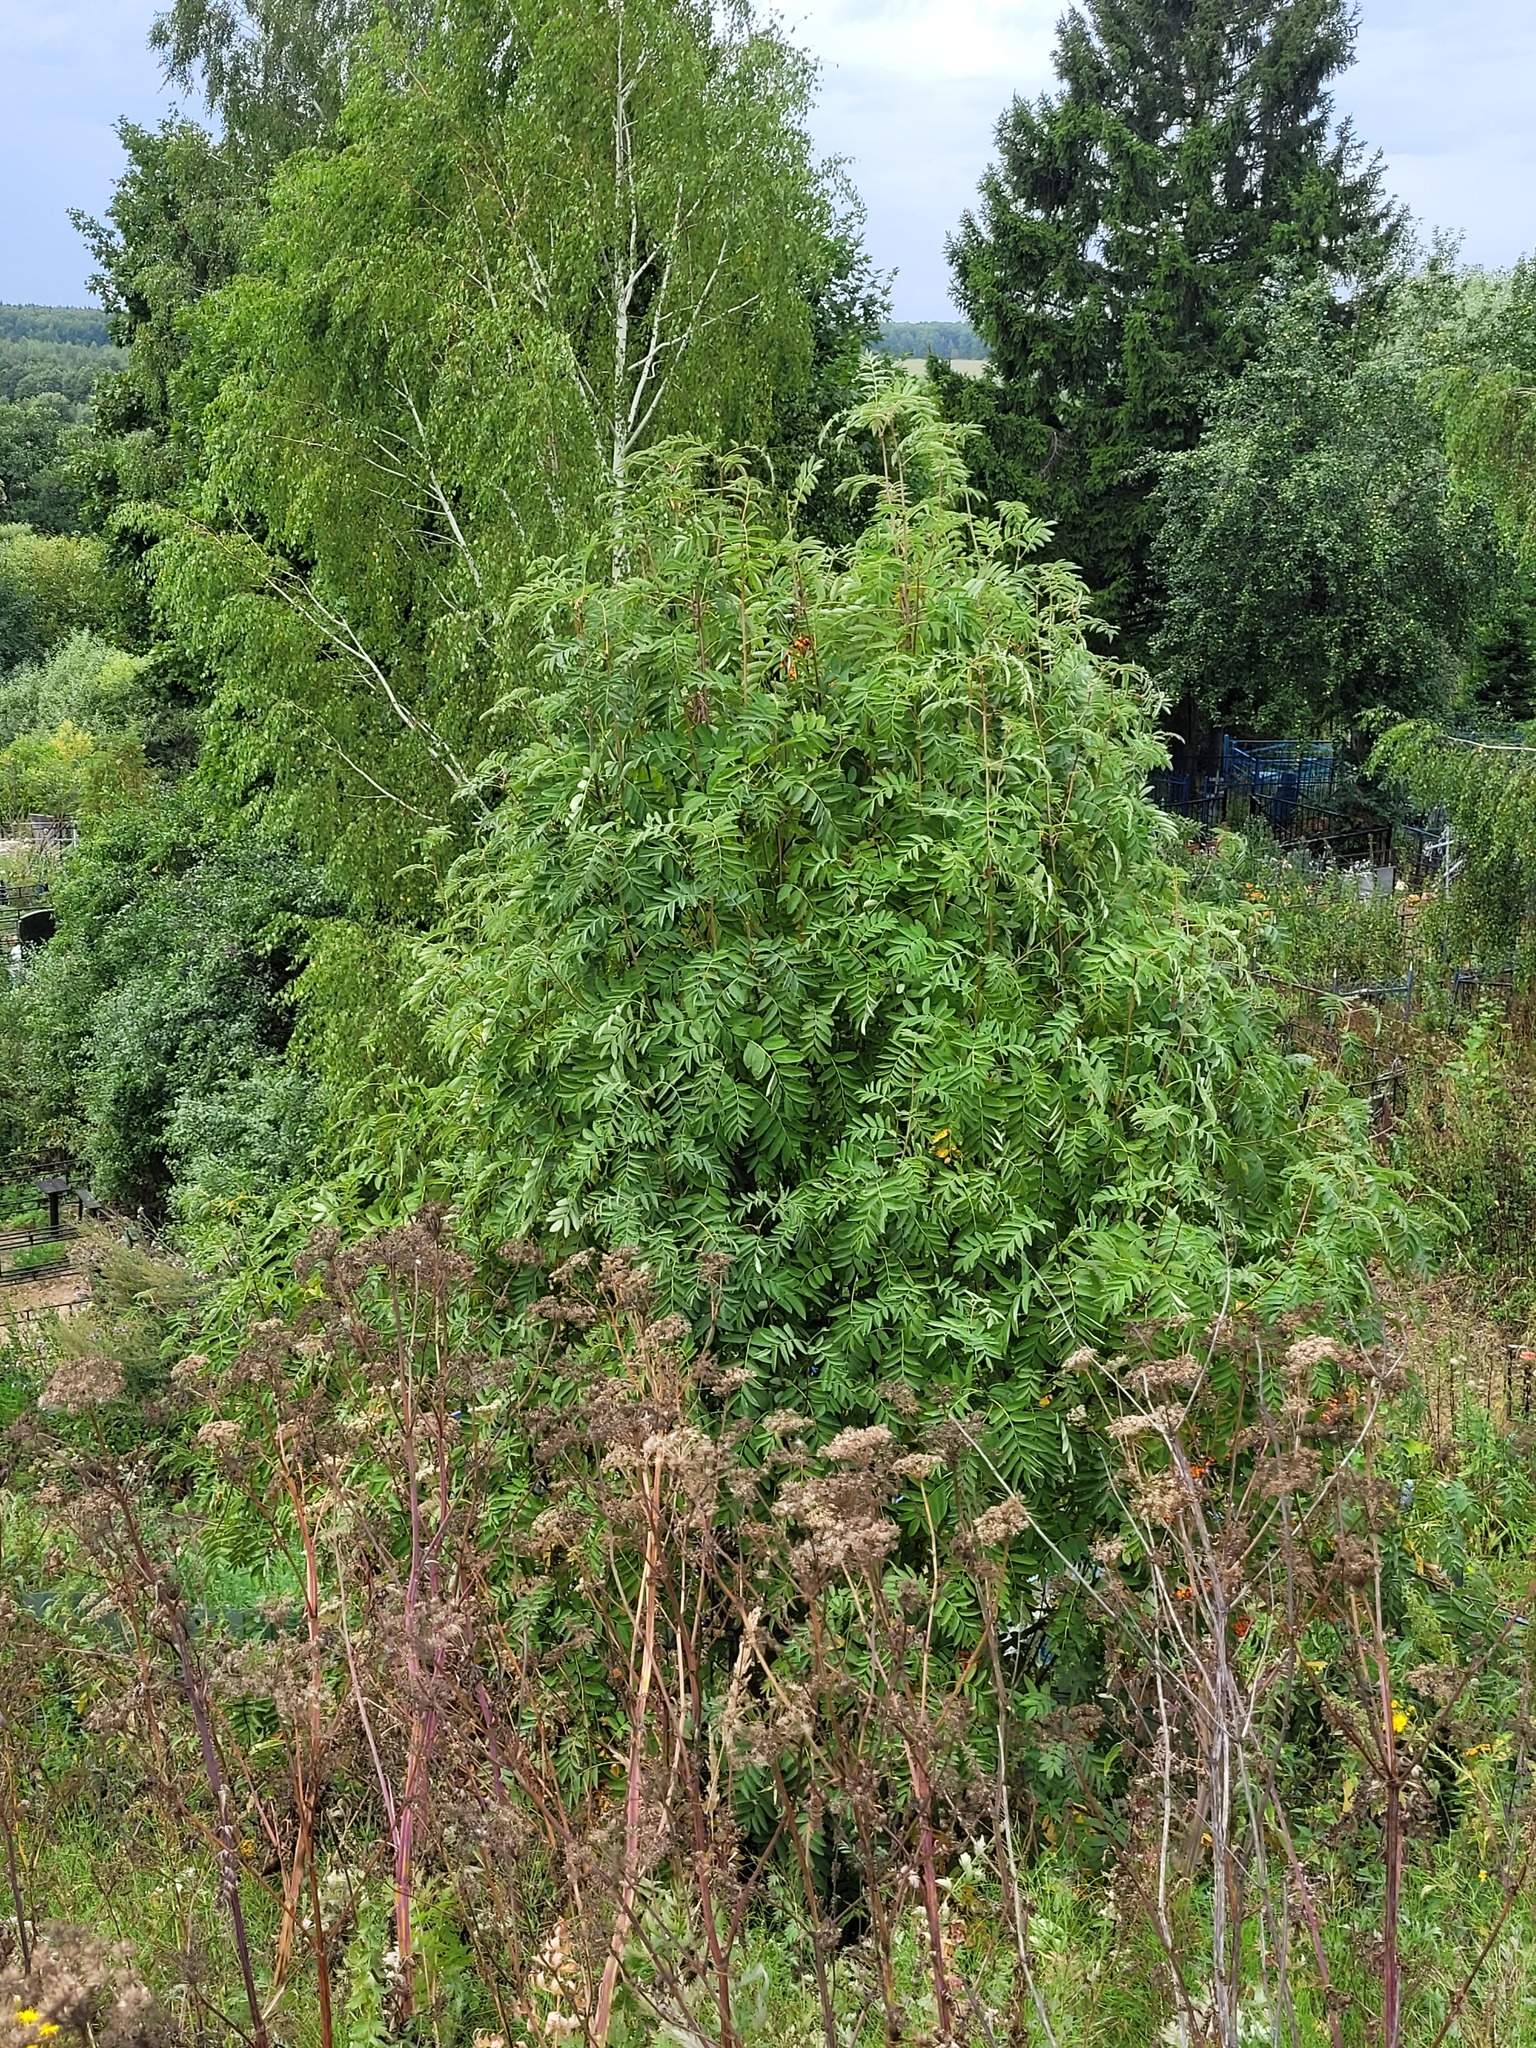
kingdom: Plantae
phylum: Tracheophyta
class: Magnoliopsida
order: Rosales
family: Rosaceae
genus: Sorbus
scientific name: Sorbus aucuparia
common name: Rowan
